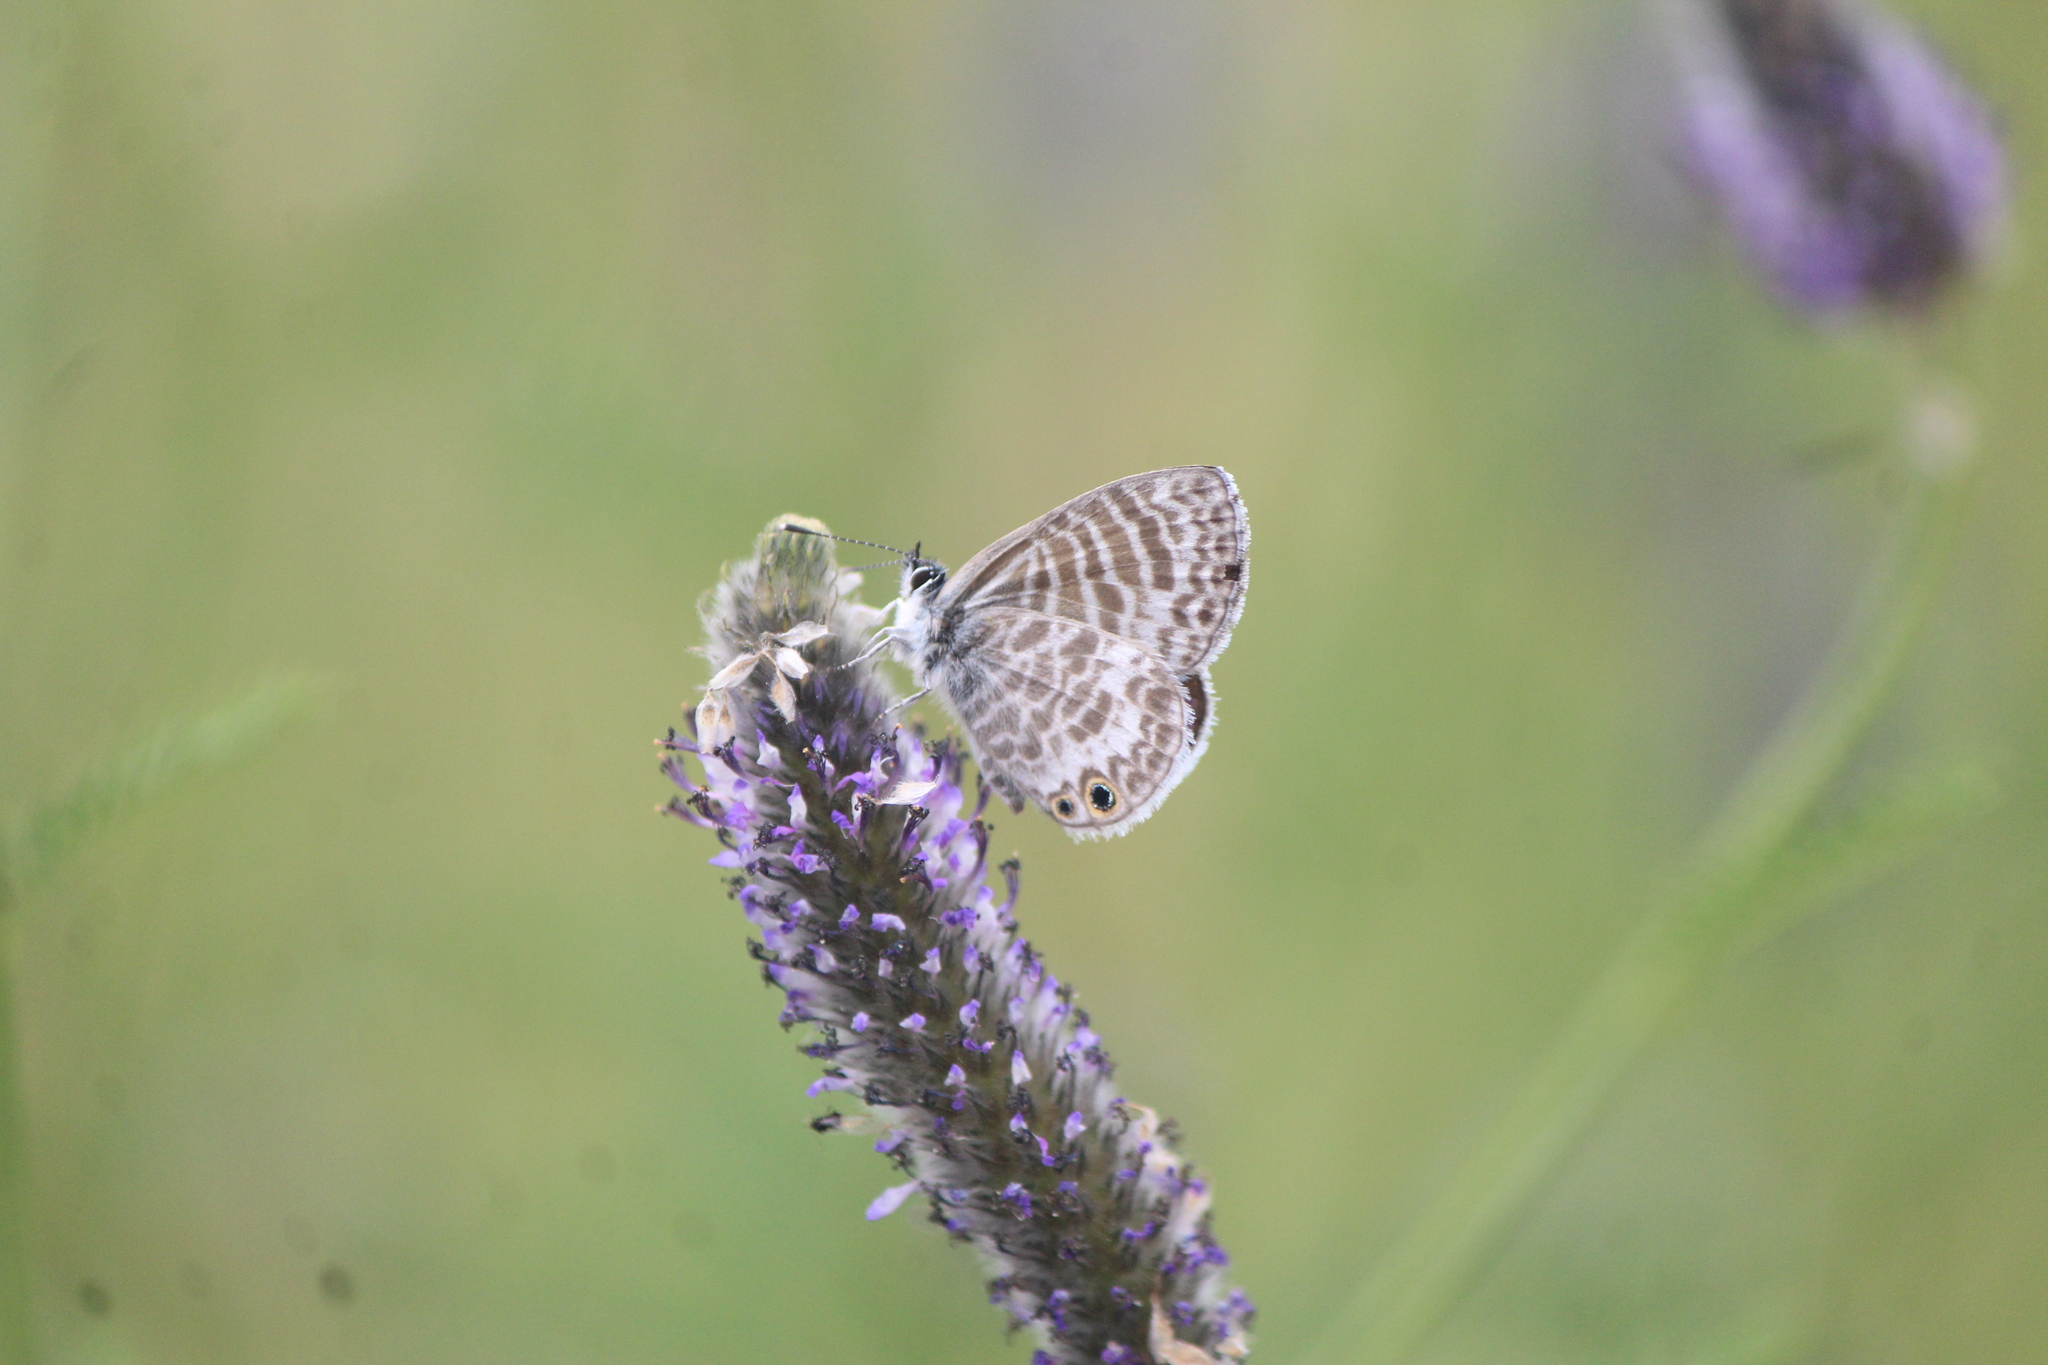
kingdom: Animalia
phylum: Arthropoda
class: Insecta
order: Lepidoptera
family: Lycaenidae
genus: Leptotes
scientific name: Leptotes marina
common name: Marine blue
